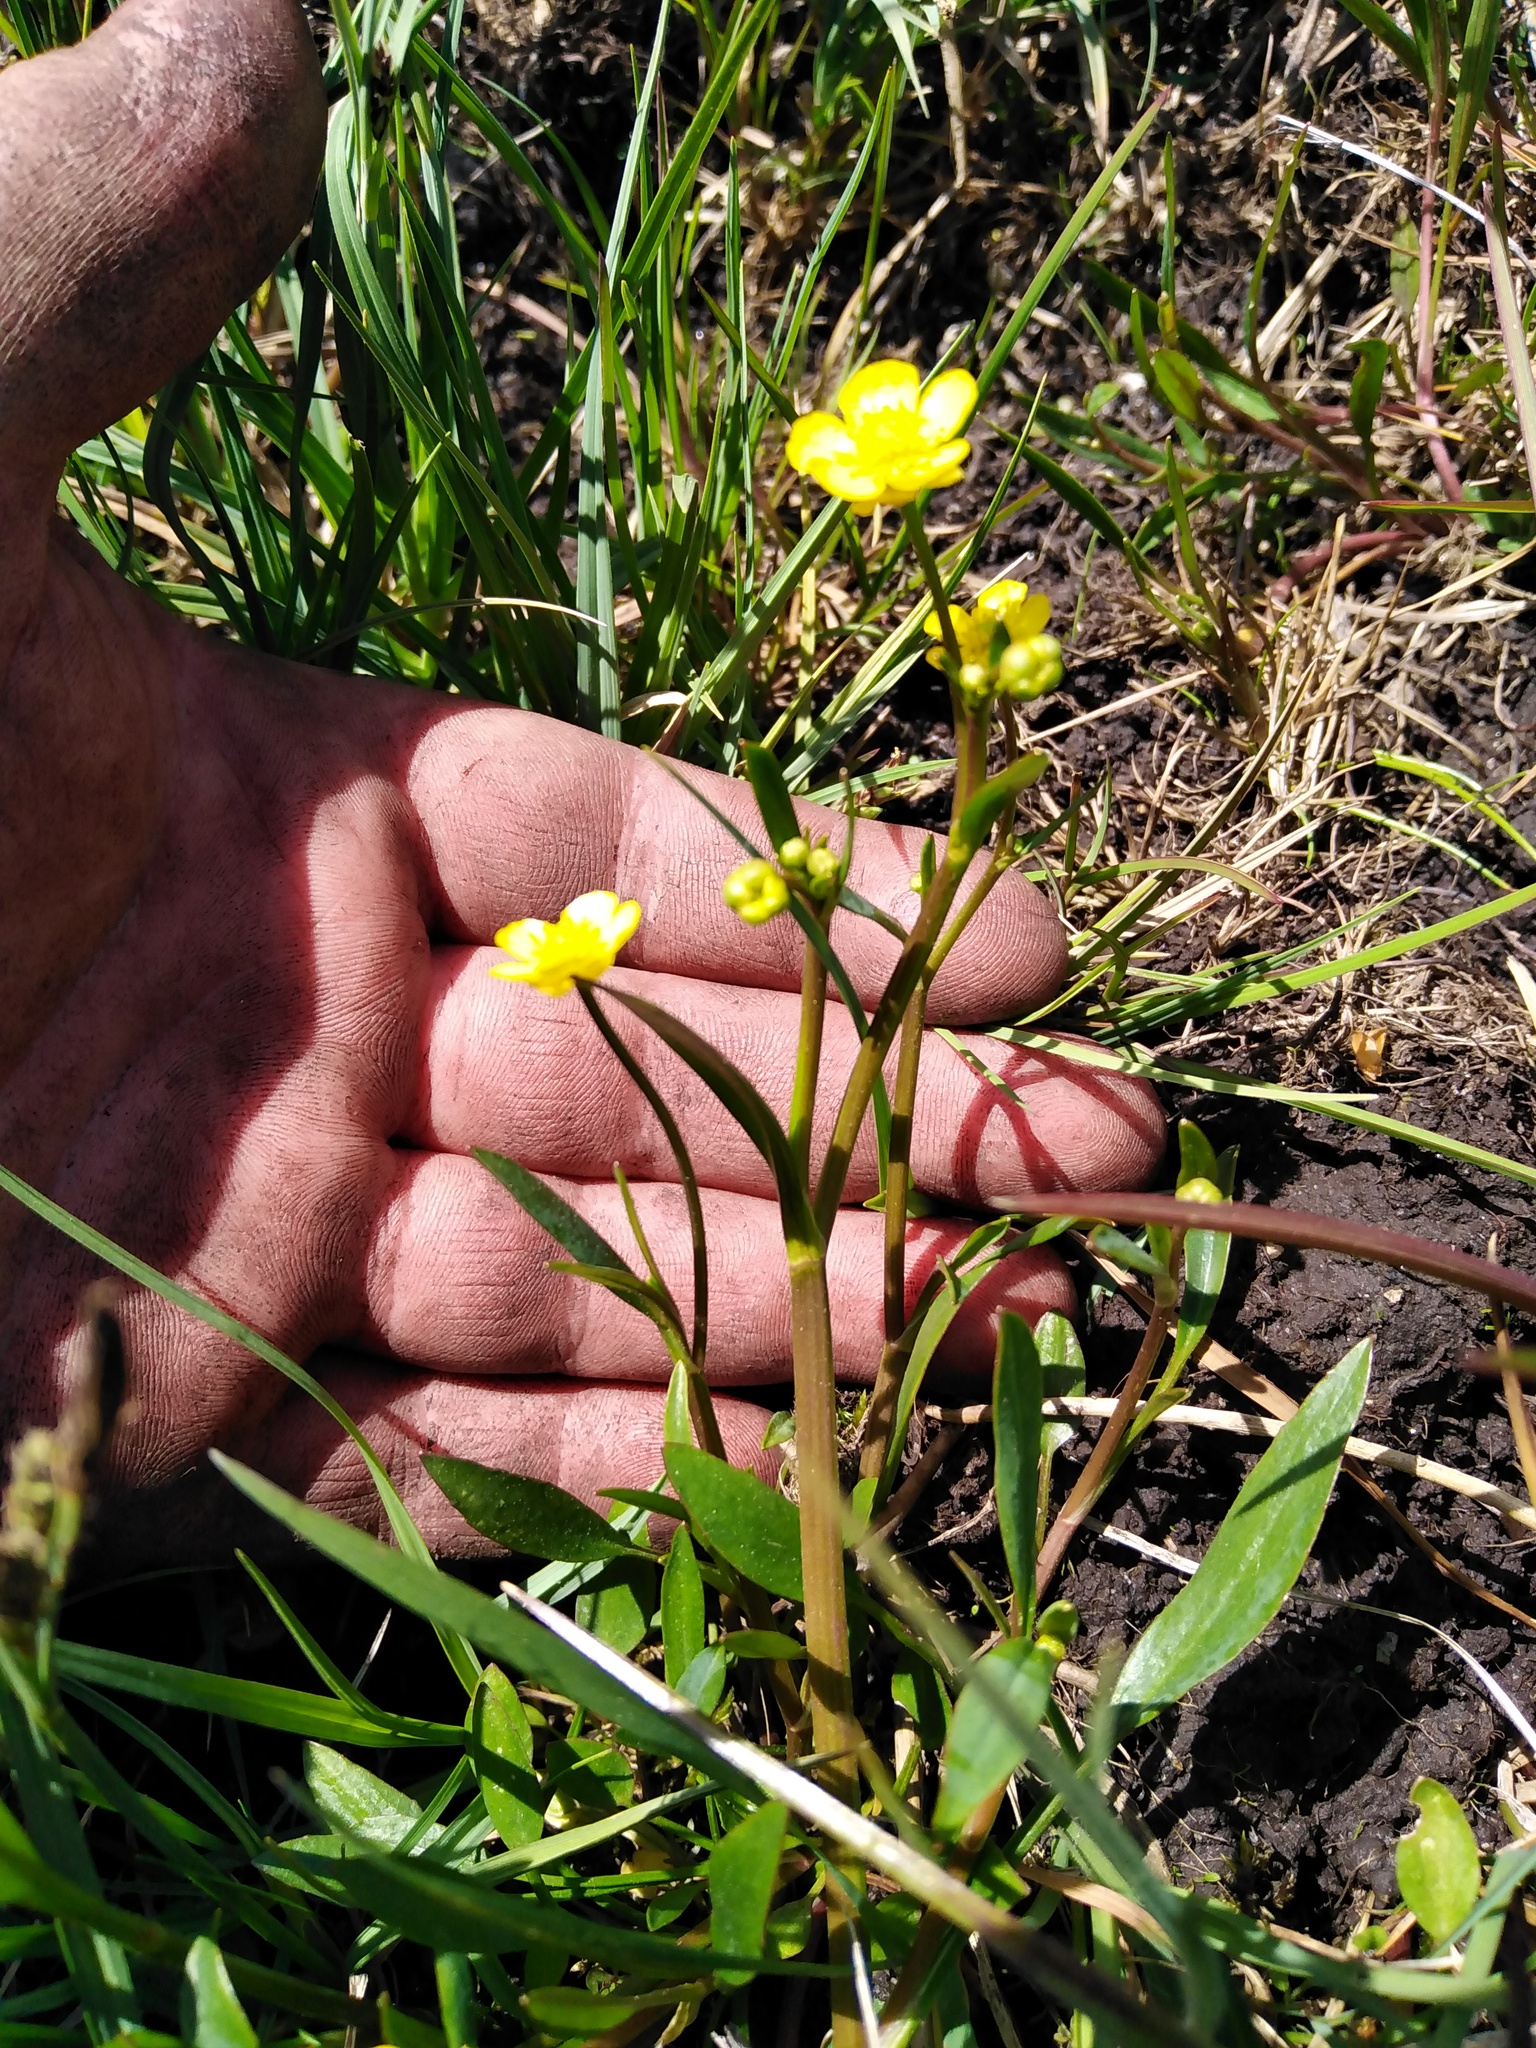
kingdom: Plantae
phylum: Tracheophyta
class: Magnoliopsida
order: Ranunculales
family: Ranunculaceae
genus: Ranunculus
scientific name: Ranunculus flammula
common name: Lesser spearwort
